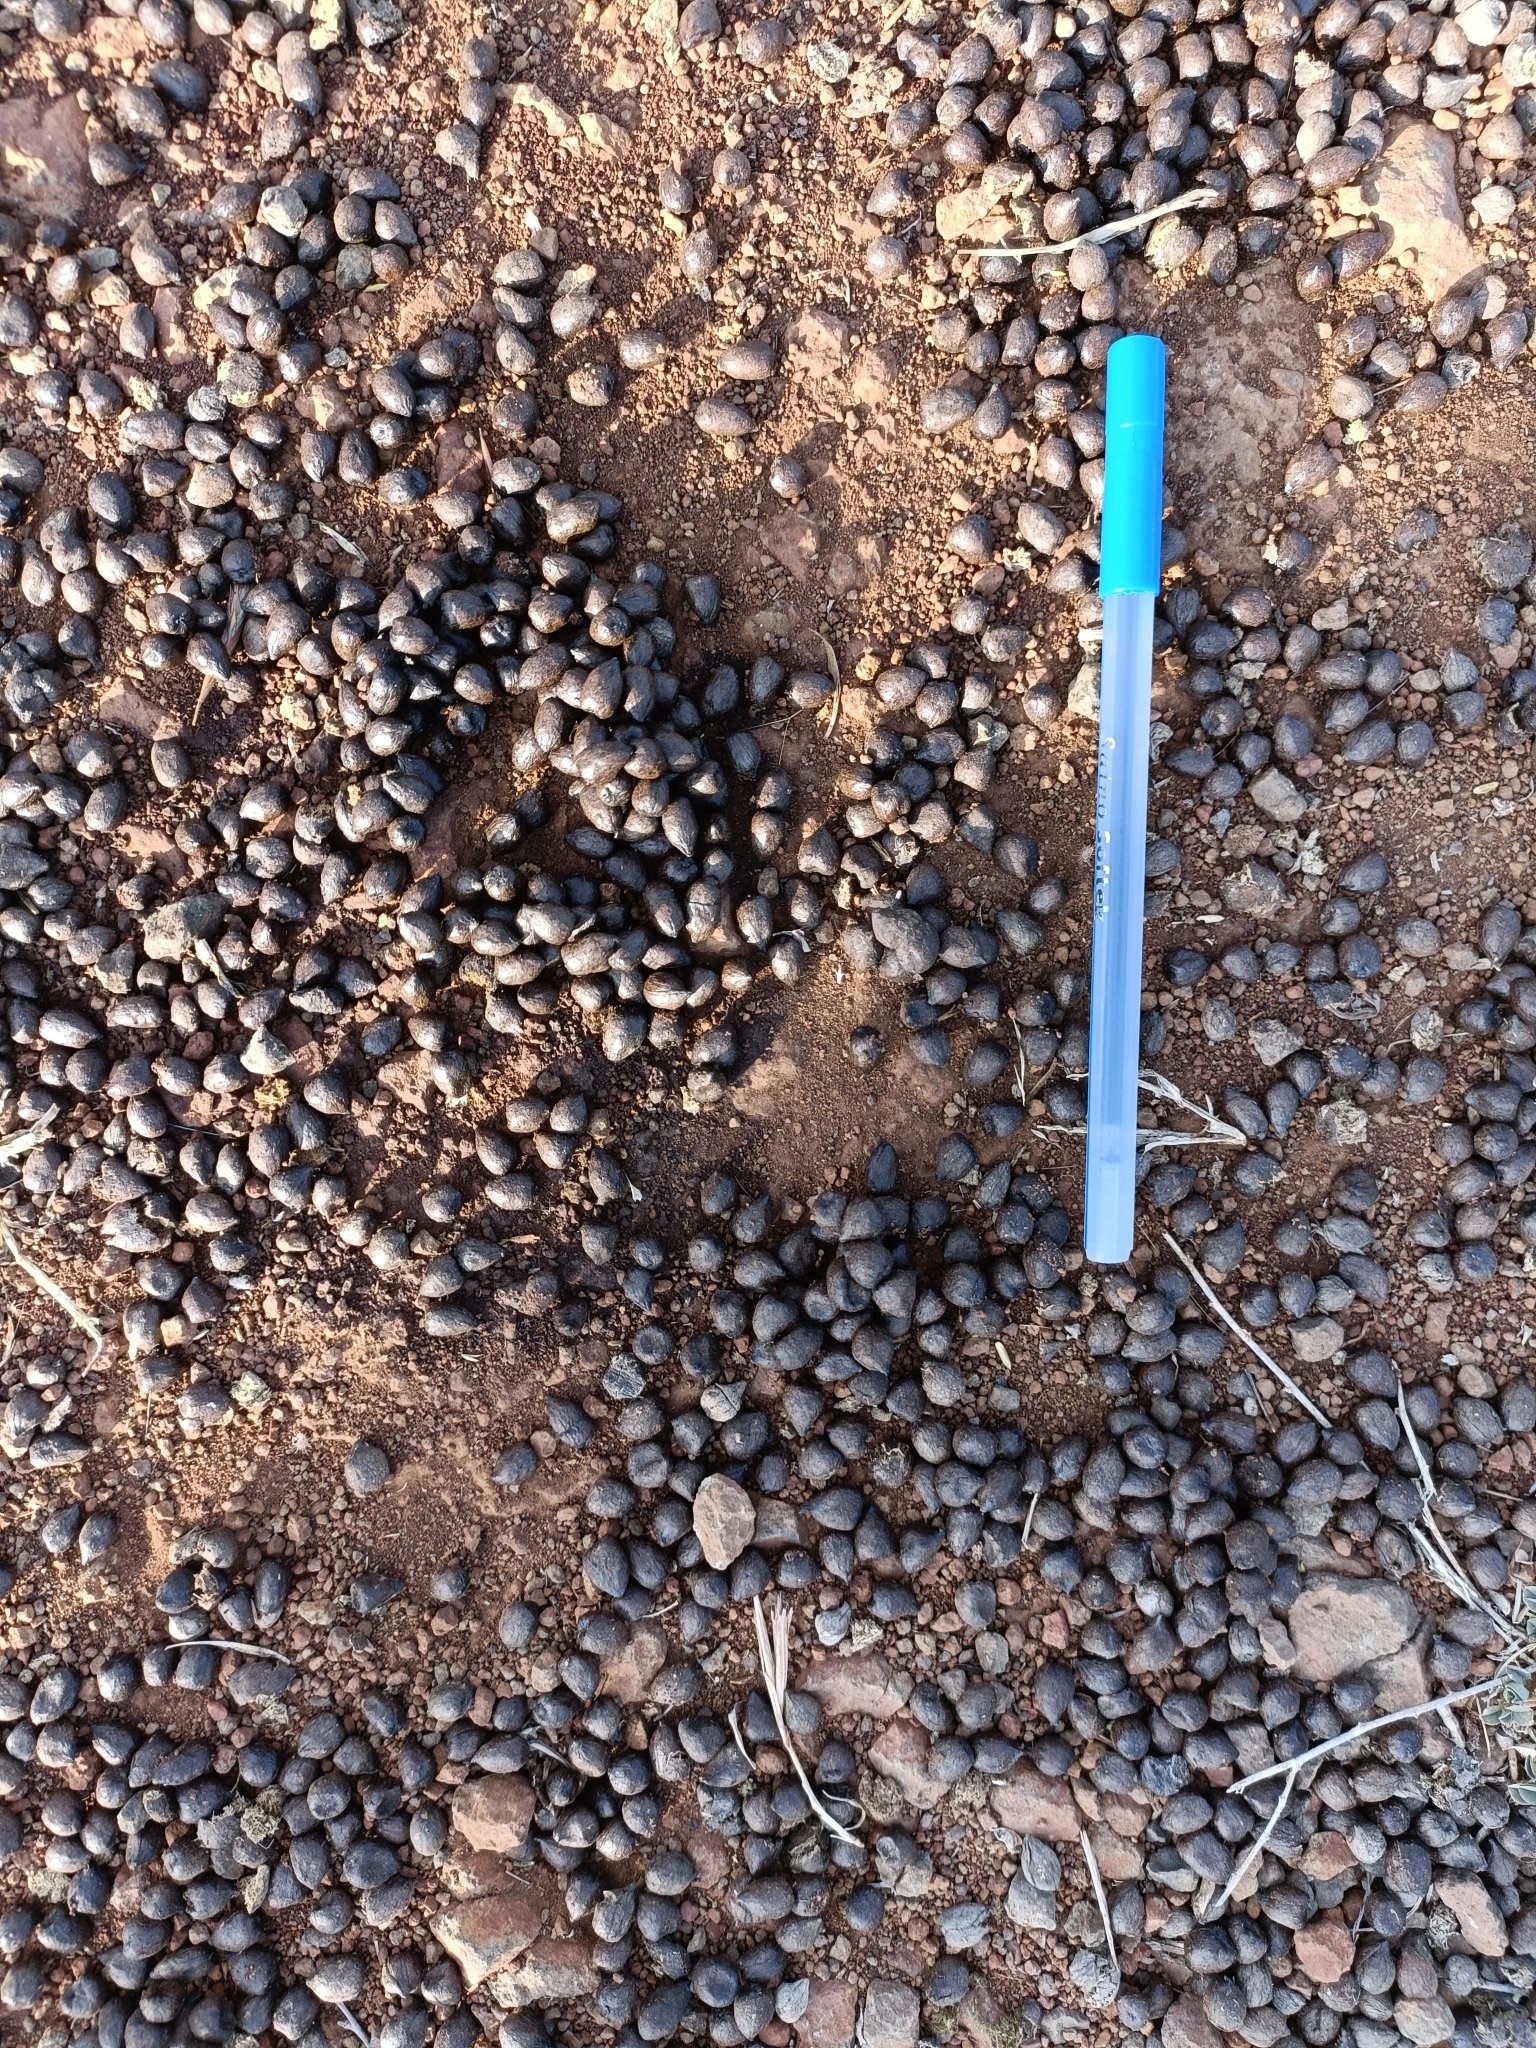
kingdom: Animalia
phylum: Chordata
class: Mammalia
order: Artiodactyla
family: Bovidae
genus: Gazella
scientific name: Gazella bennettii
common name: Indian gazelle
